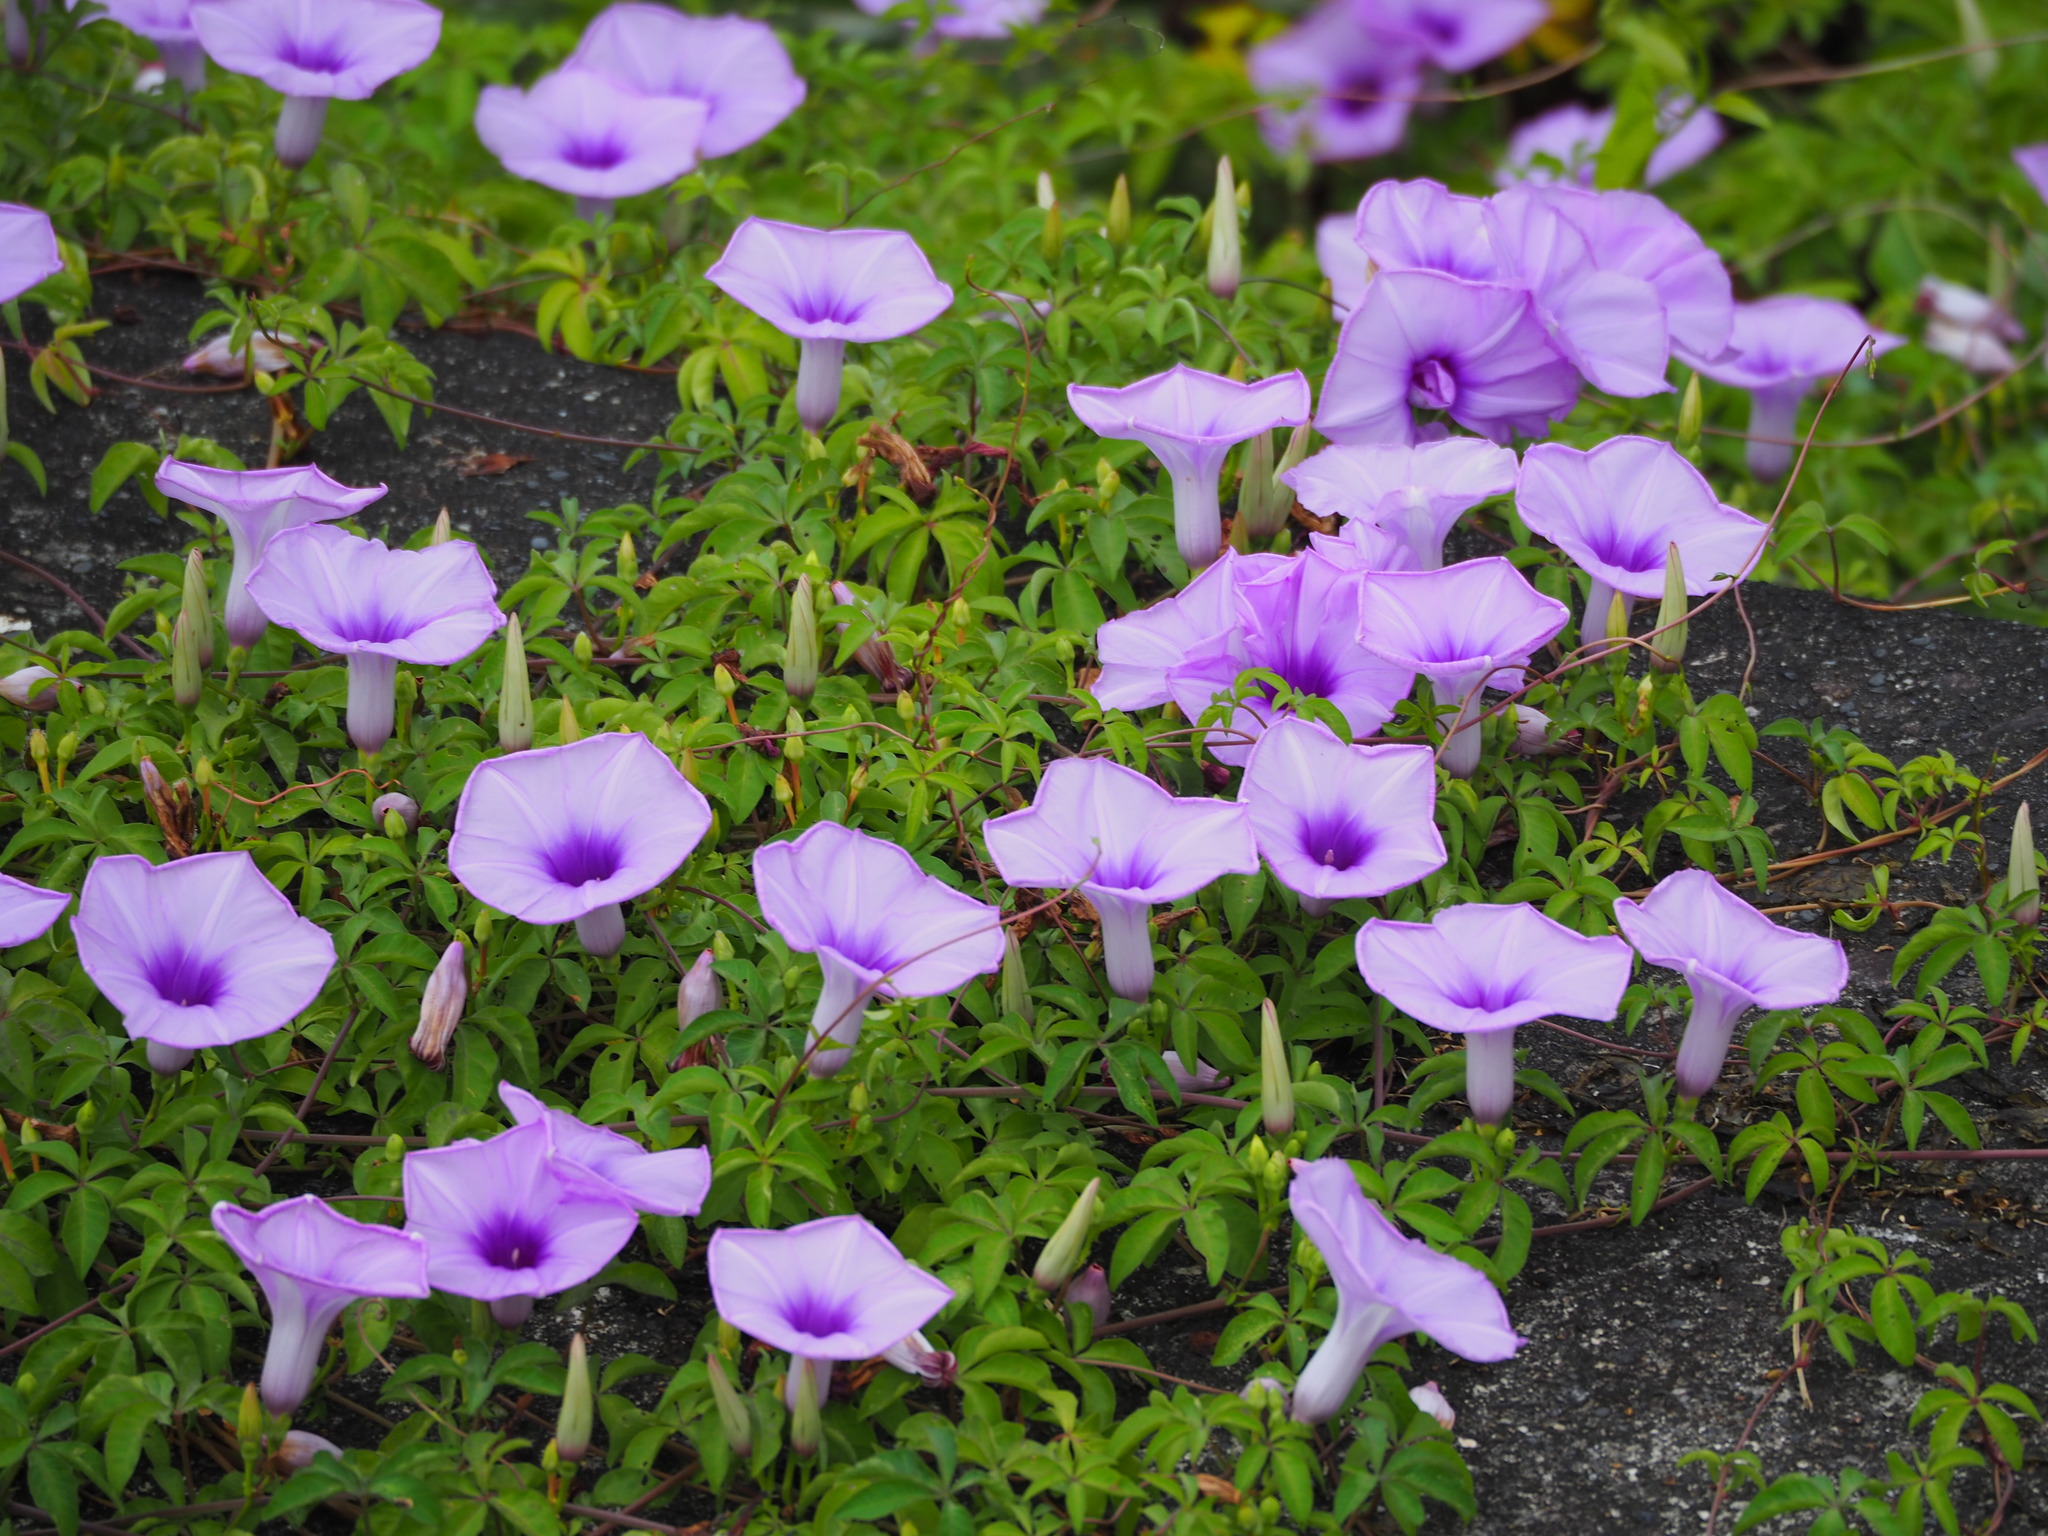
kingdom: Plantae
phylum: Tracheophyta
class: Magnoliopsida
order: Solanales
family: Convolvulaceae
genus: Ipomoea
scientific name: Ipomoea cairica
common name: Mile a minute vine
